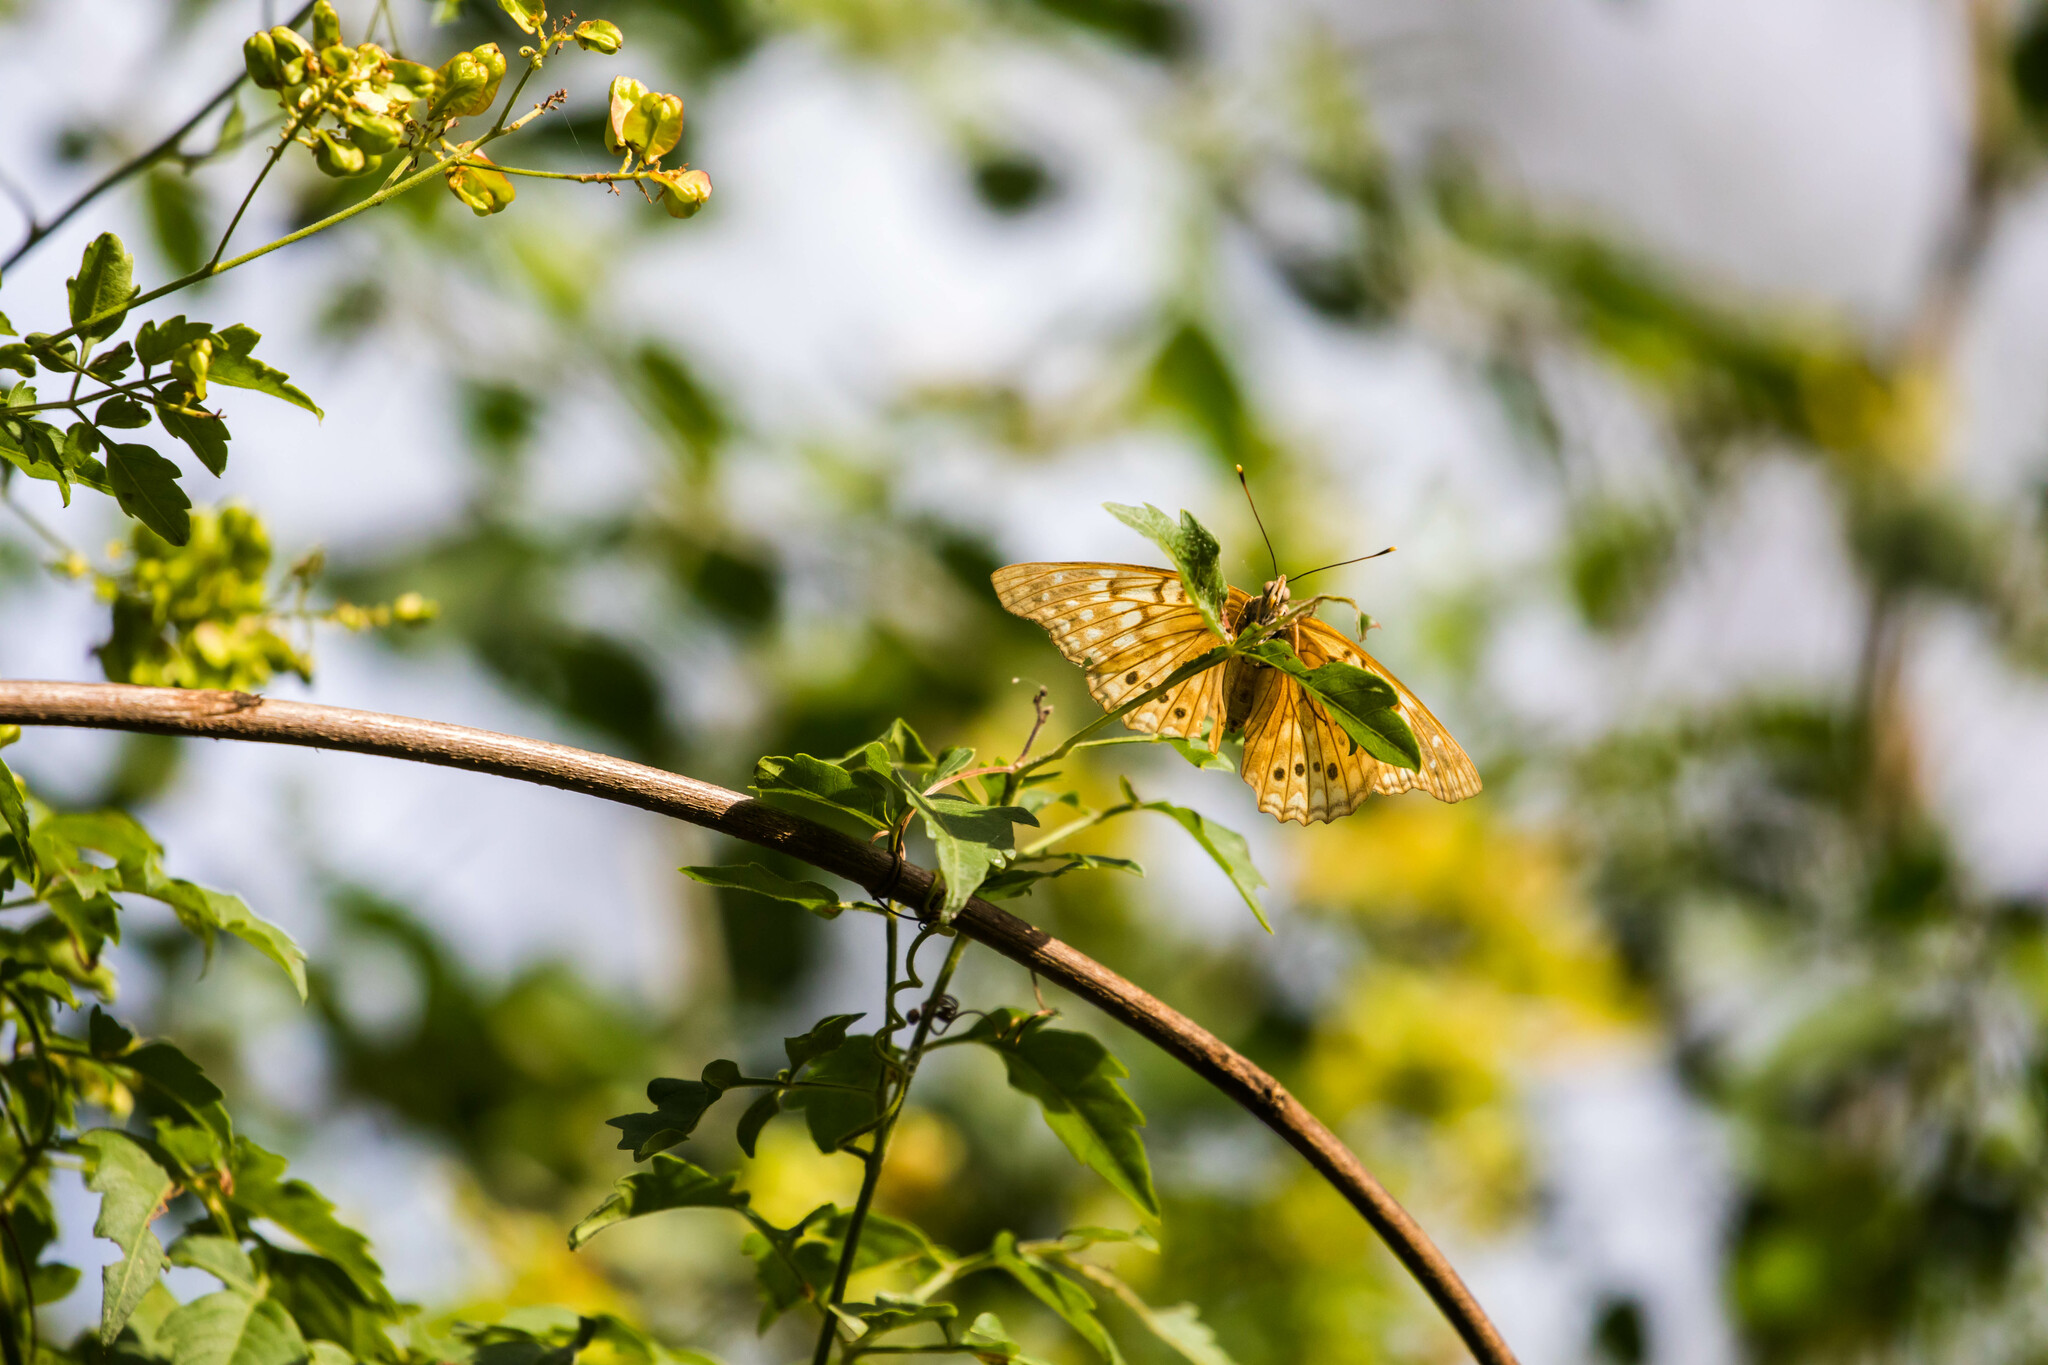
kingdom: Animalia
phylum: Arthropoda
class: Insecta
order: Lepidoptera
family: Nymphalidae
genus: Asterocampa
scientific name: Asterocampa clyton
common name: Tawny emperor
